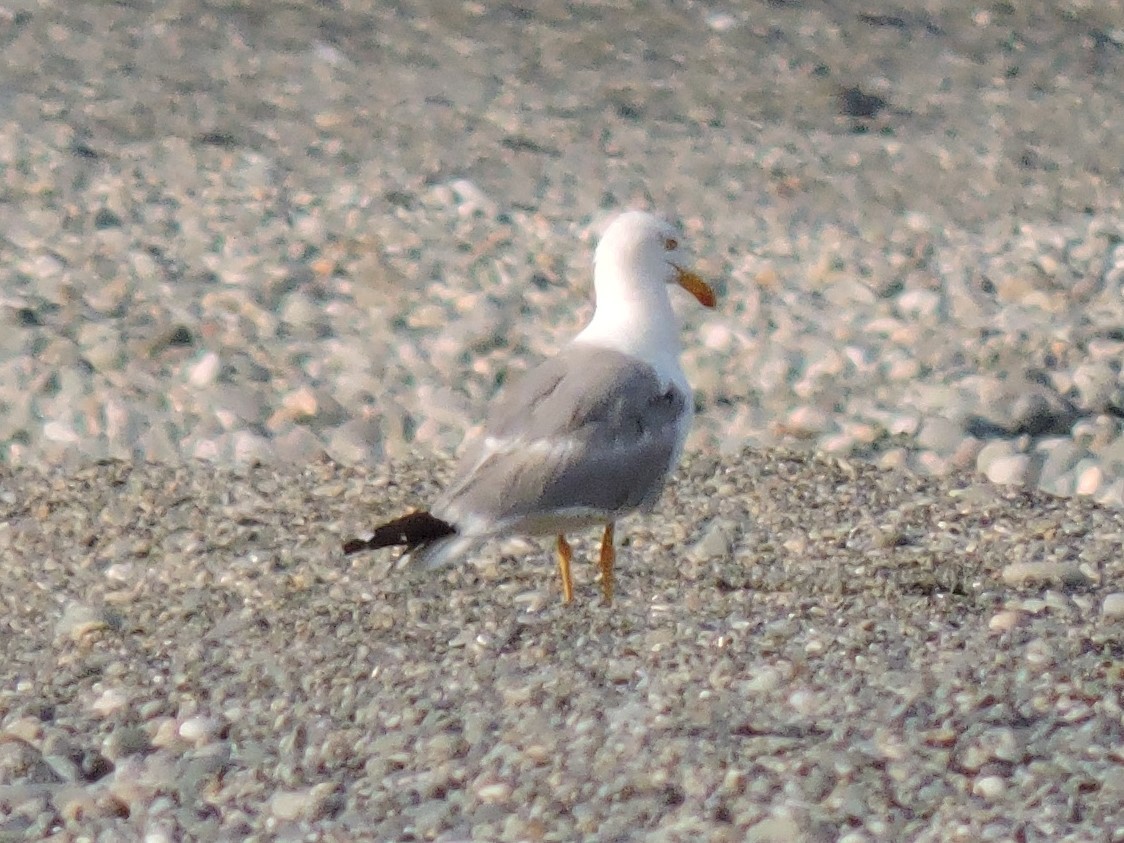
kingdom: Animalia
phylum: Chordata
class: Aves
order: Charadriiformes
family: Laridae
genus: Larus
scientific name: Larus michahellis
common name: Yellow-legged gull
